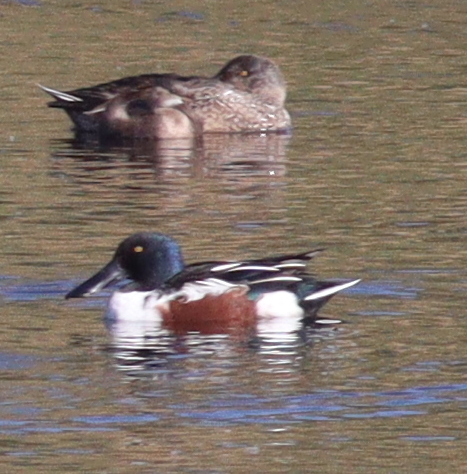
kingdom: Animalia
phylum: Chordata
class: Aves
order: Anseriformes
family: Anatidae
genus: Spatula
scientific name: Spatula clypeata
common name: Northern shoveler
